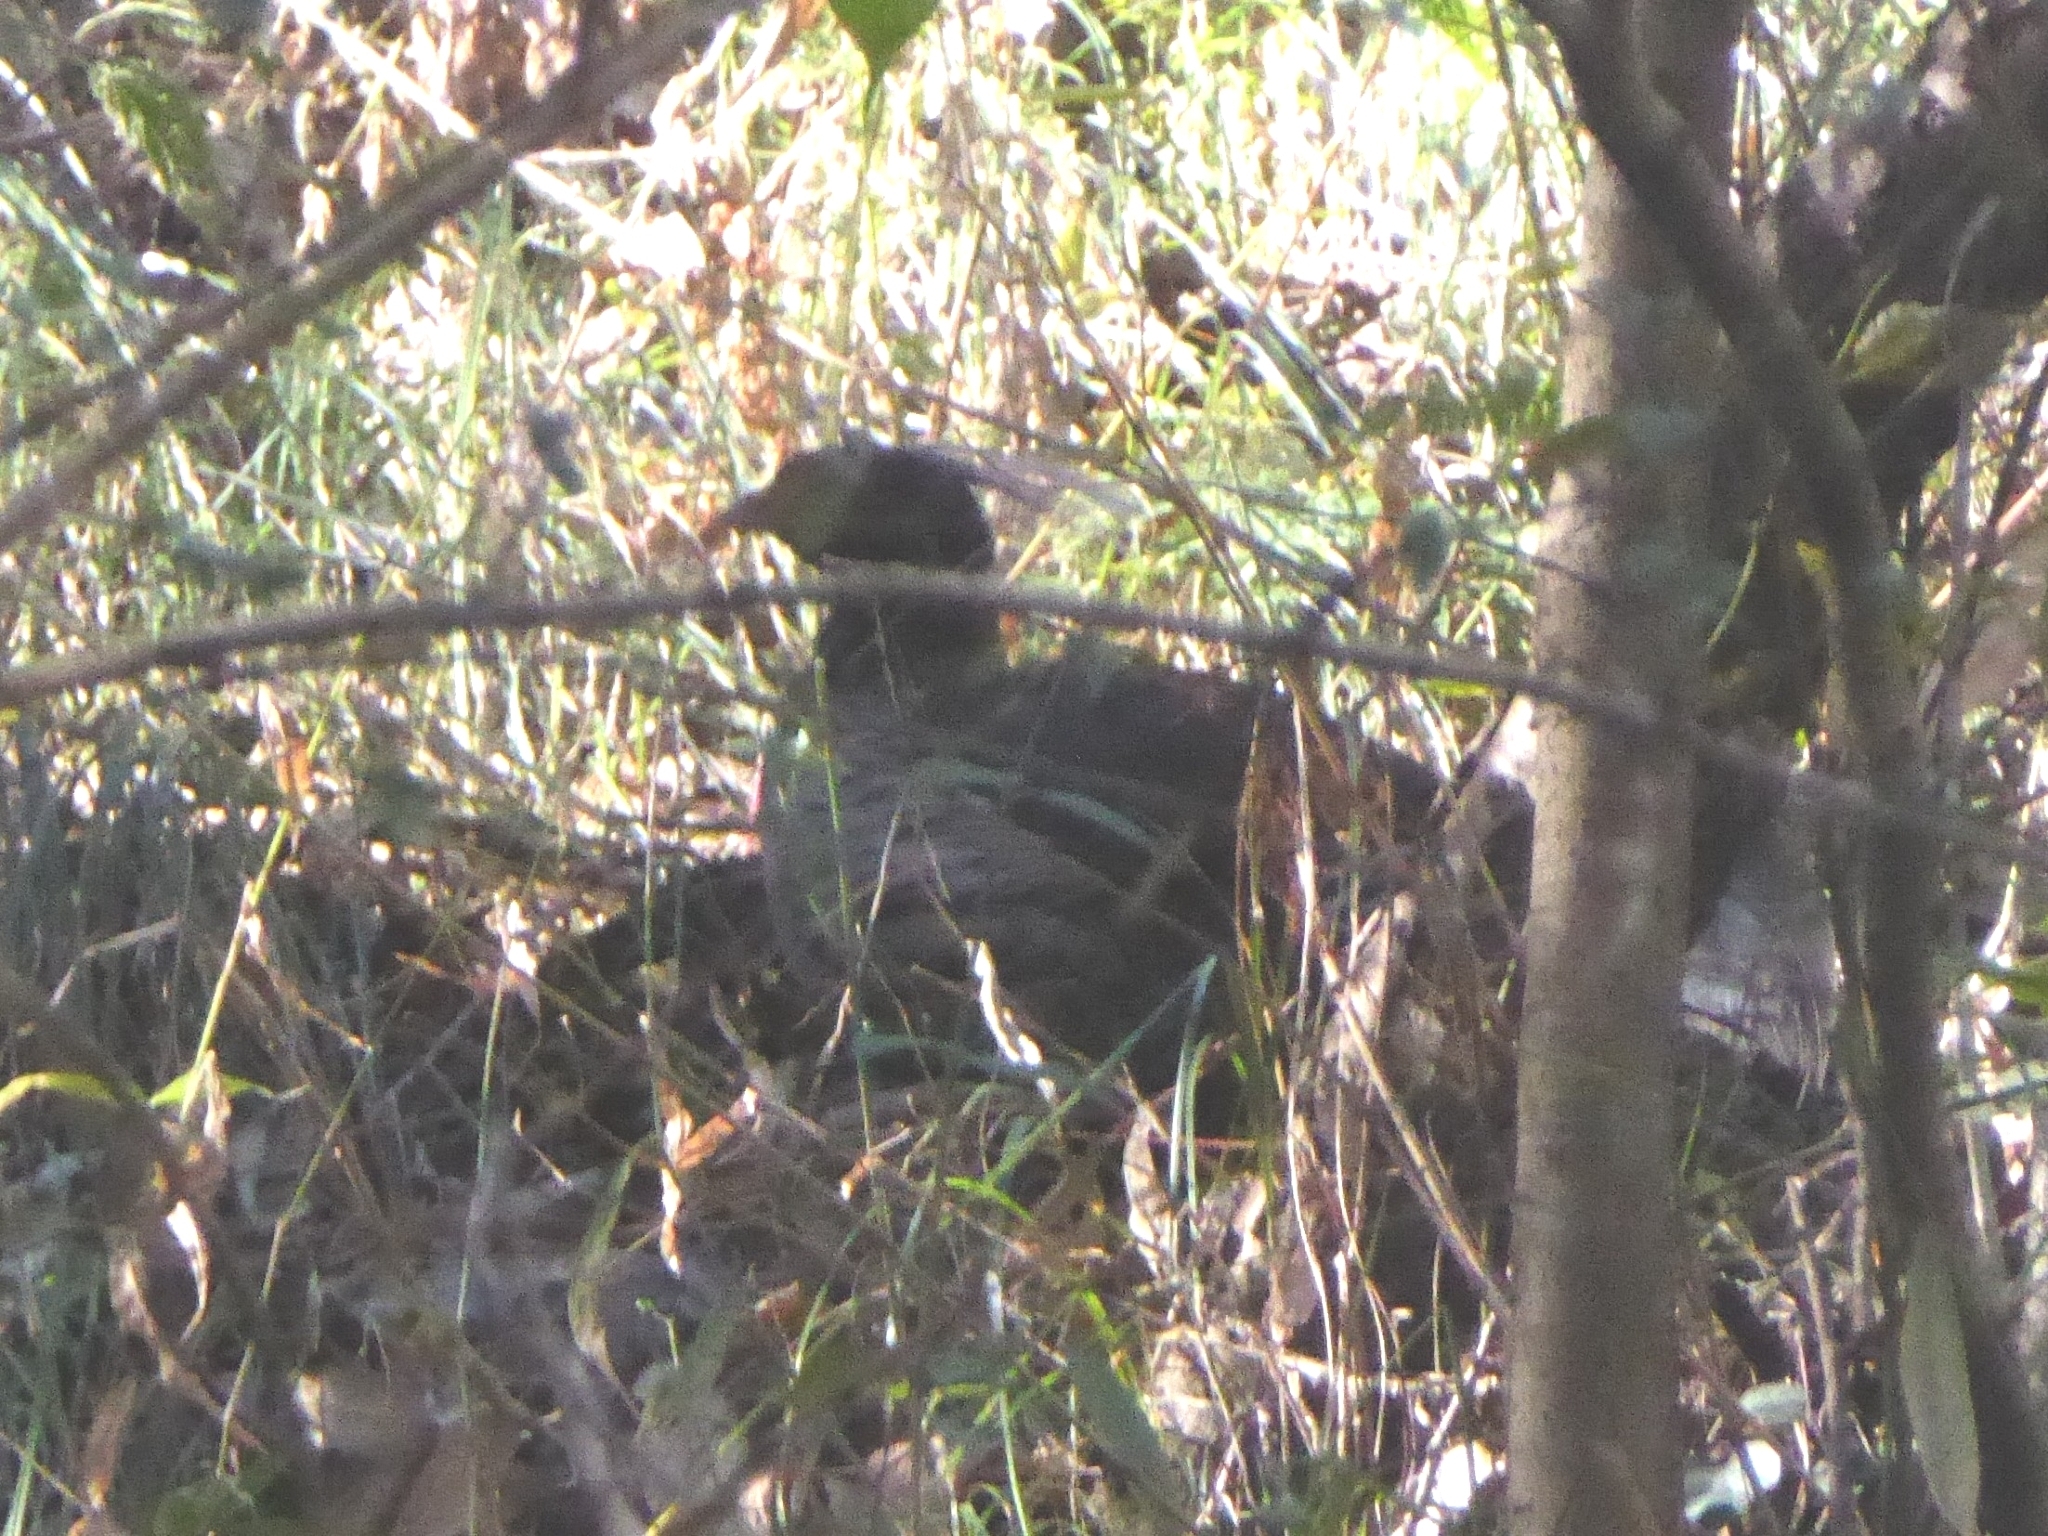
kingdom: Animalia
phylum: Chordata
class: Aves
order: Galliformes
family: Phasianidae
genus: Lophura
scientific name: Lophura leucomelanos
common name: Kalij pheasant
